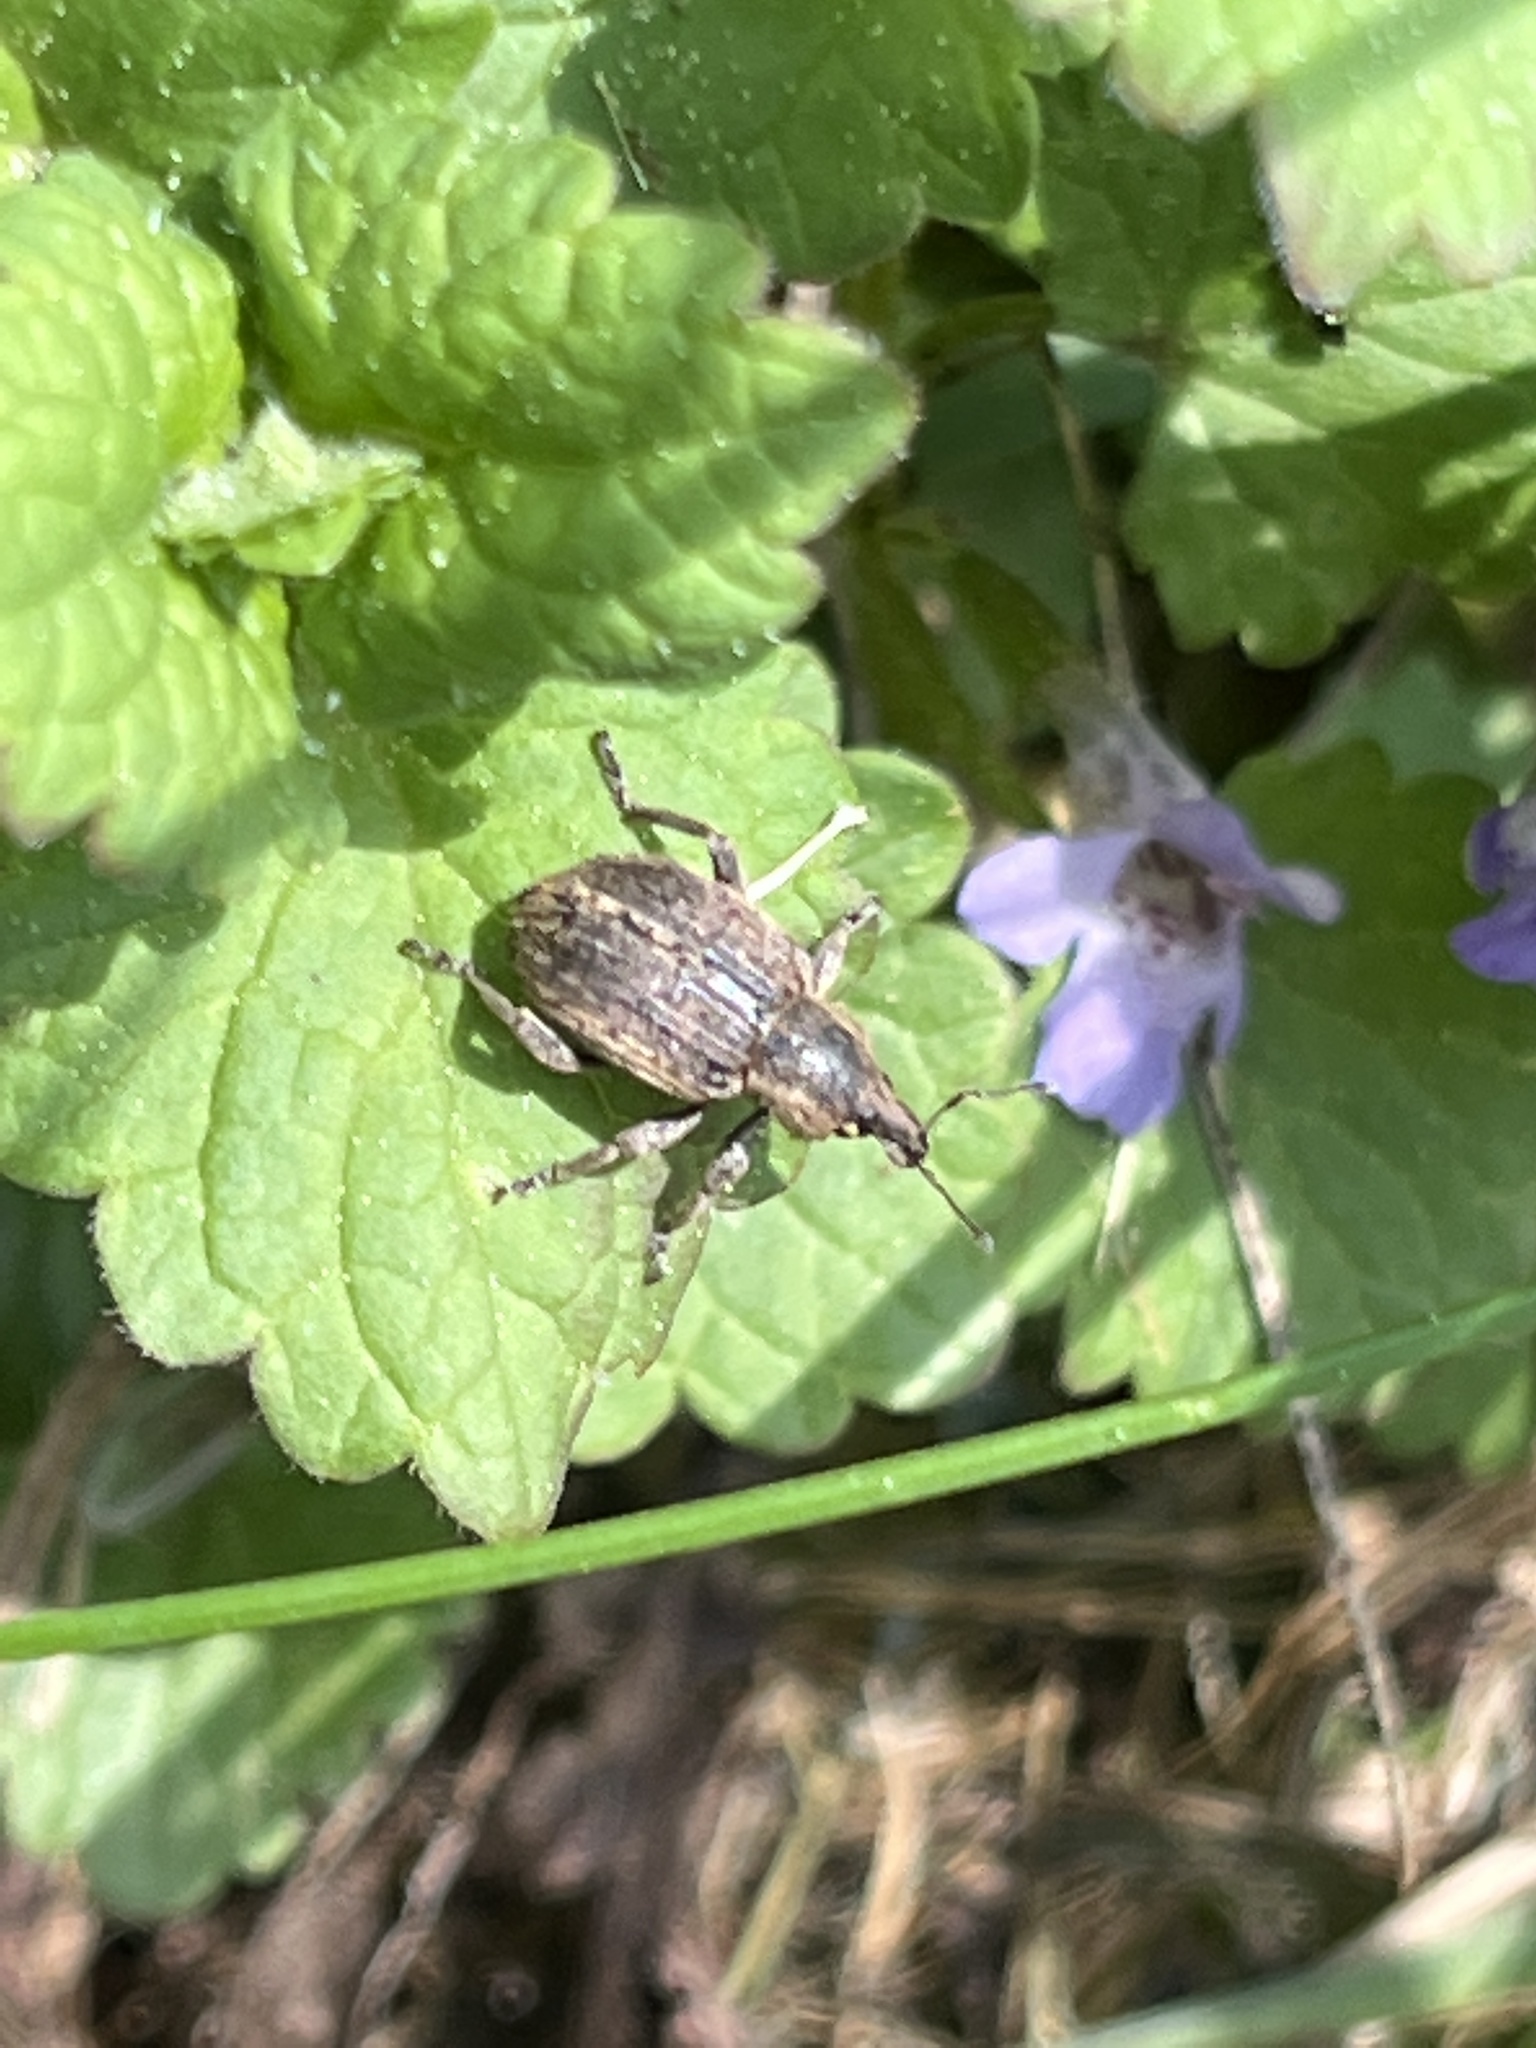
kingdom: Animalia
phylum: Arthropoda
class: Insecta
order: Coleoptera
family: Curculionidae
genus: Brachypera
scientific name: Brachypera zoilus
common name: Clover leaf weevil
